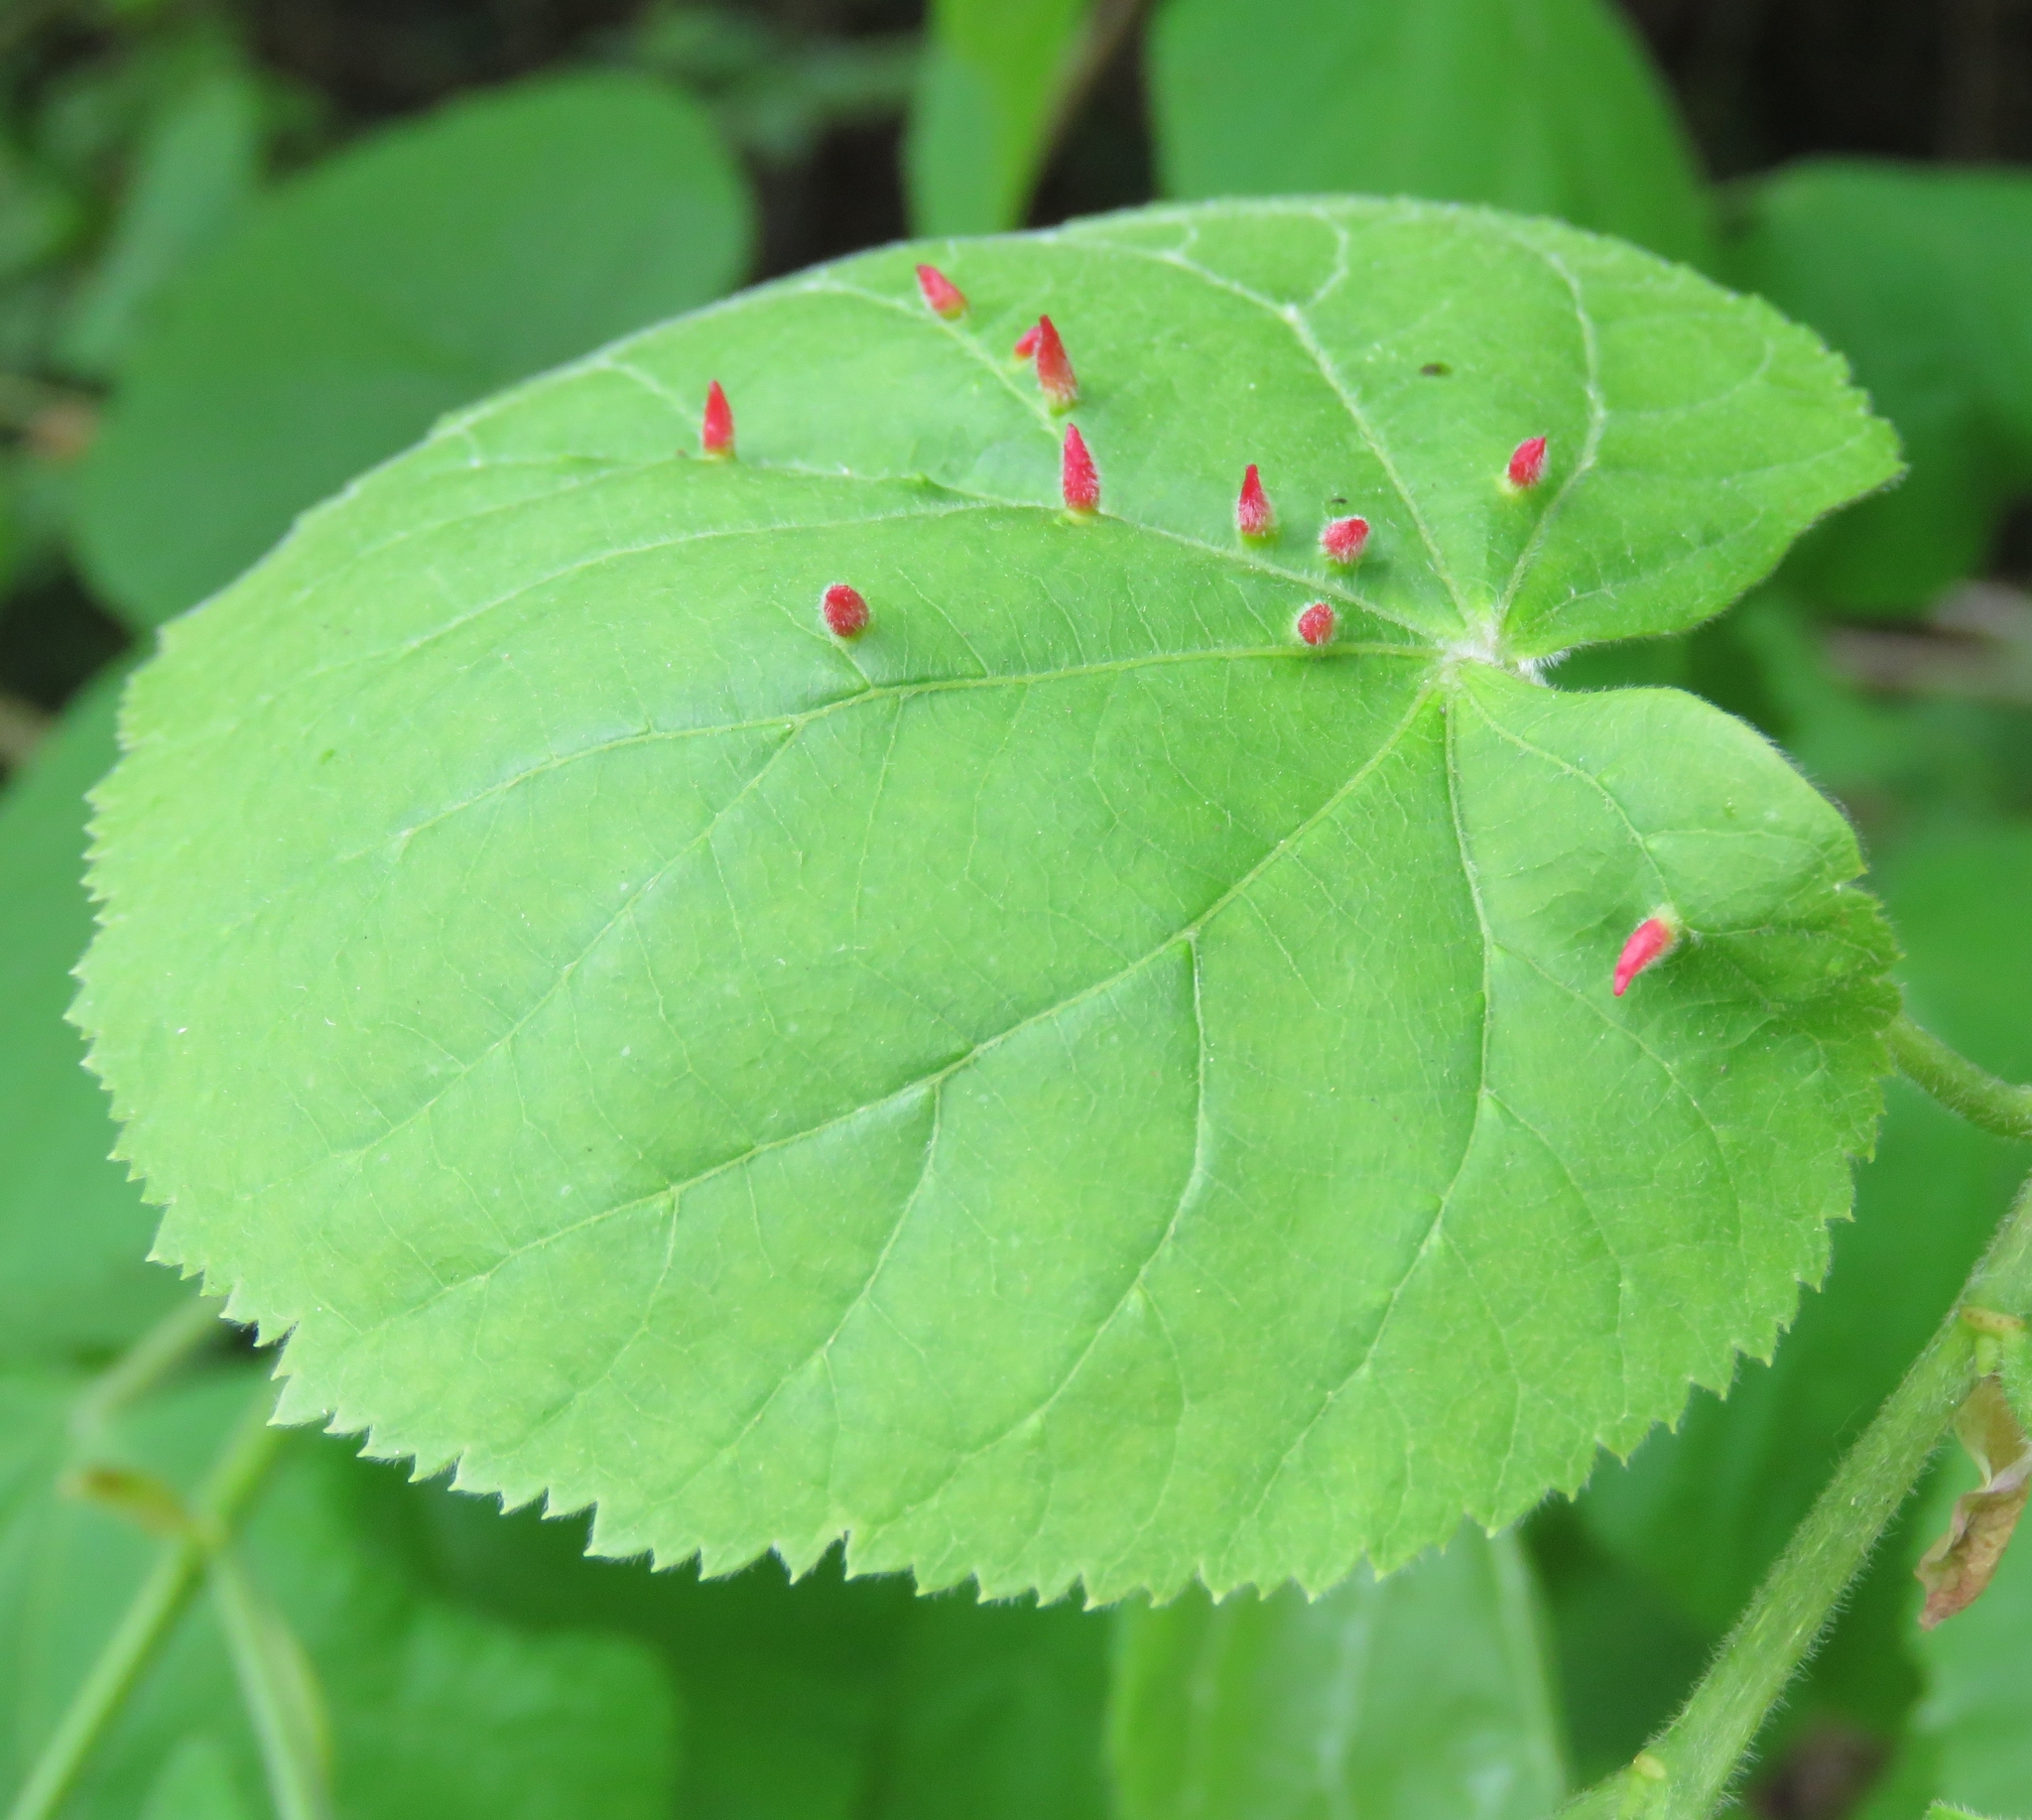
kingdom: Animalia
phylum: Arthropoda
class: Arachnida
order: Trombidiformes
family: Eriophyidae
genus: Eriophyes
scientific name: Eriophyes tiliae
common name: Red nail gall mite
